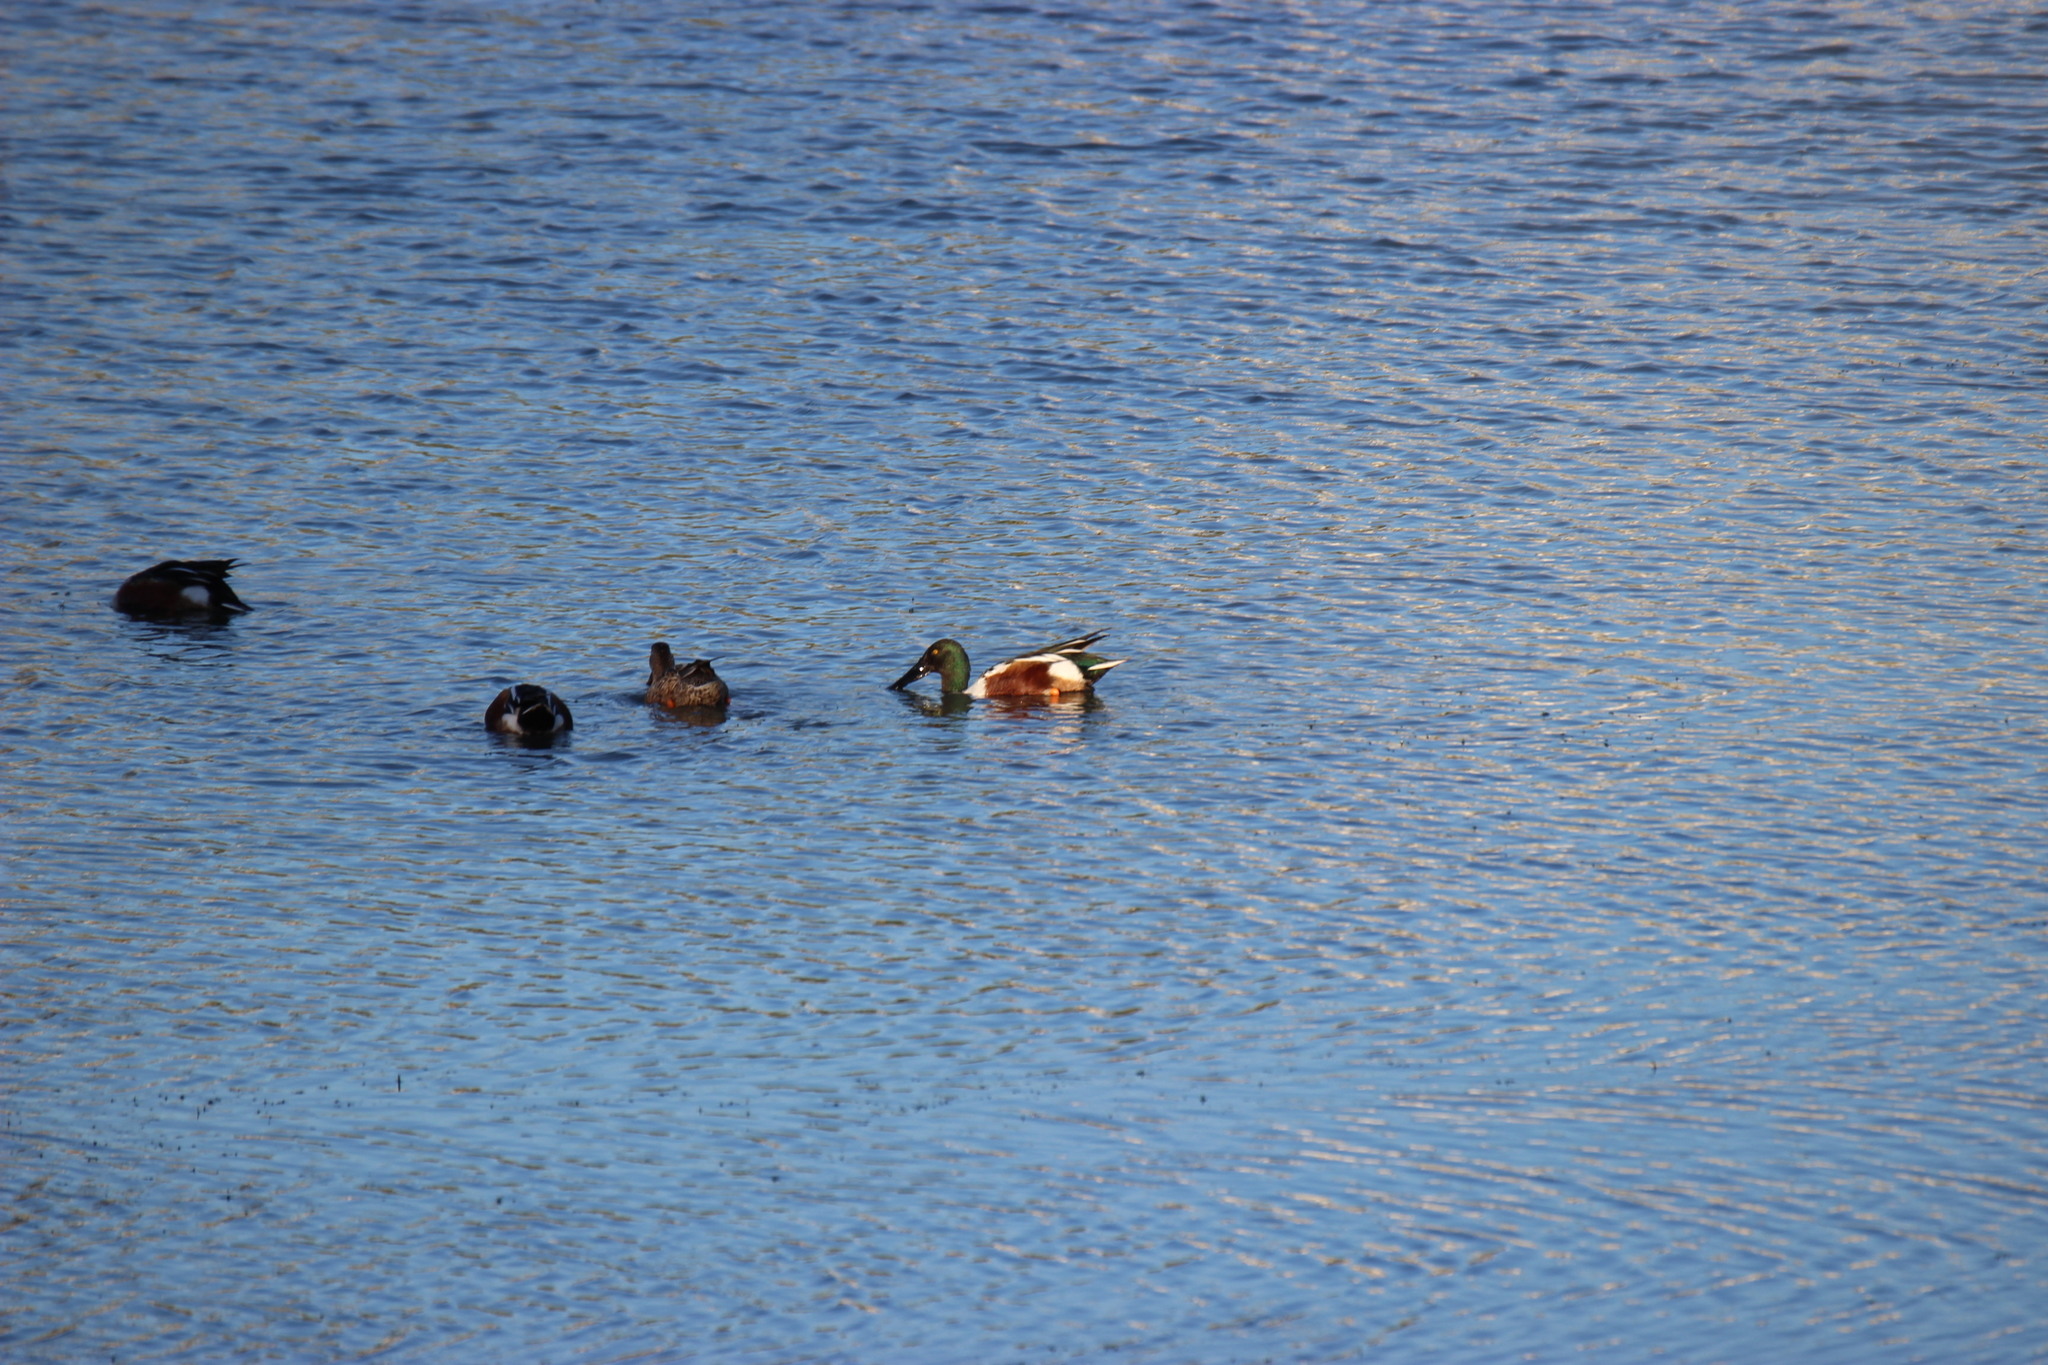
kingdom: Animalia
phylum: Chordata
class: Aves
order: Anseriformes
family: Anatidae
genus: Spatula
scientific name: Spatula clypeata
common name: Northern shoveler
